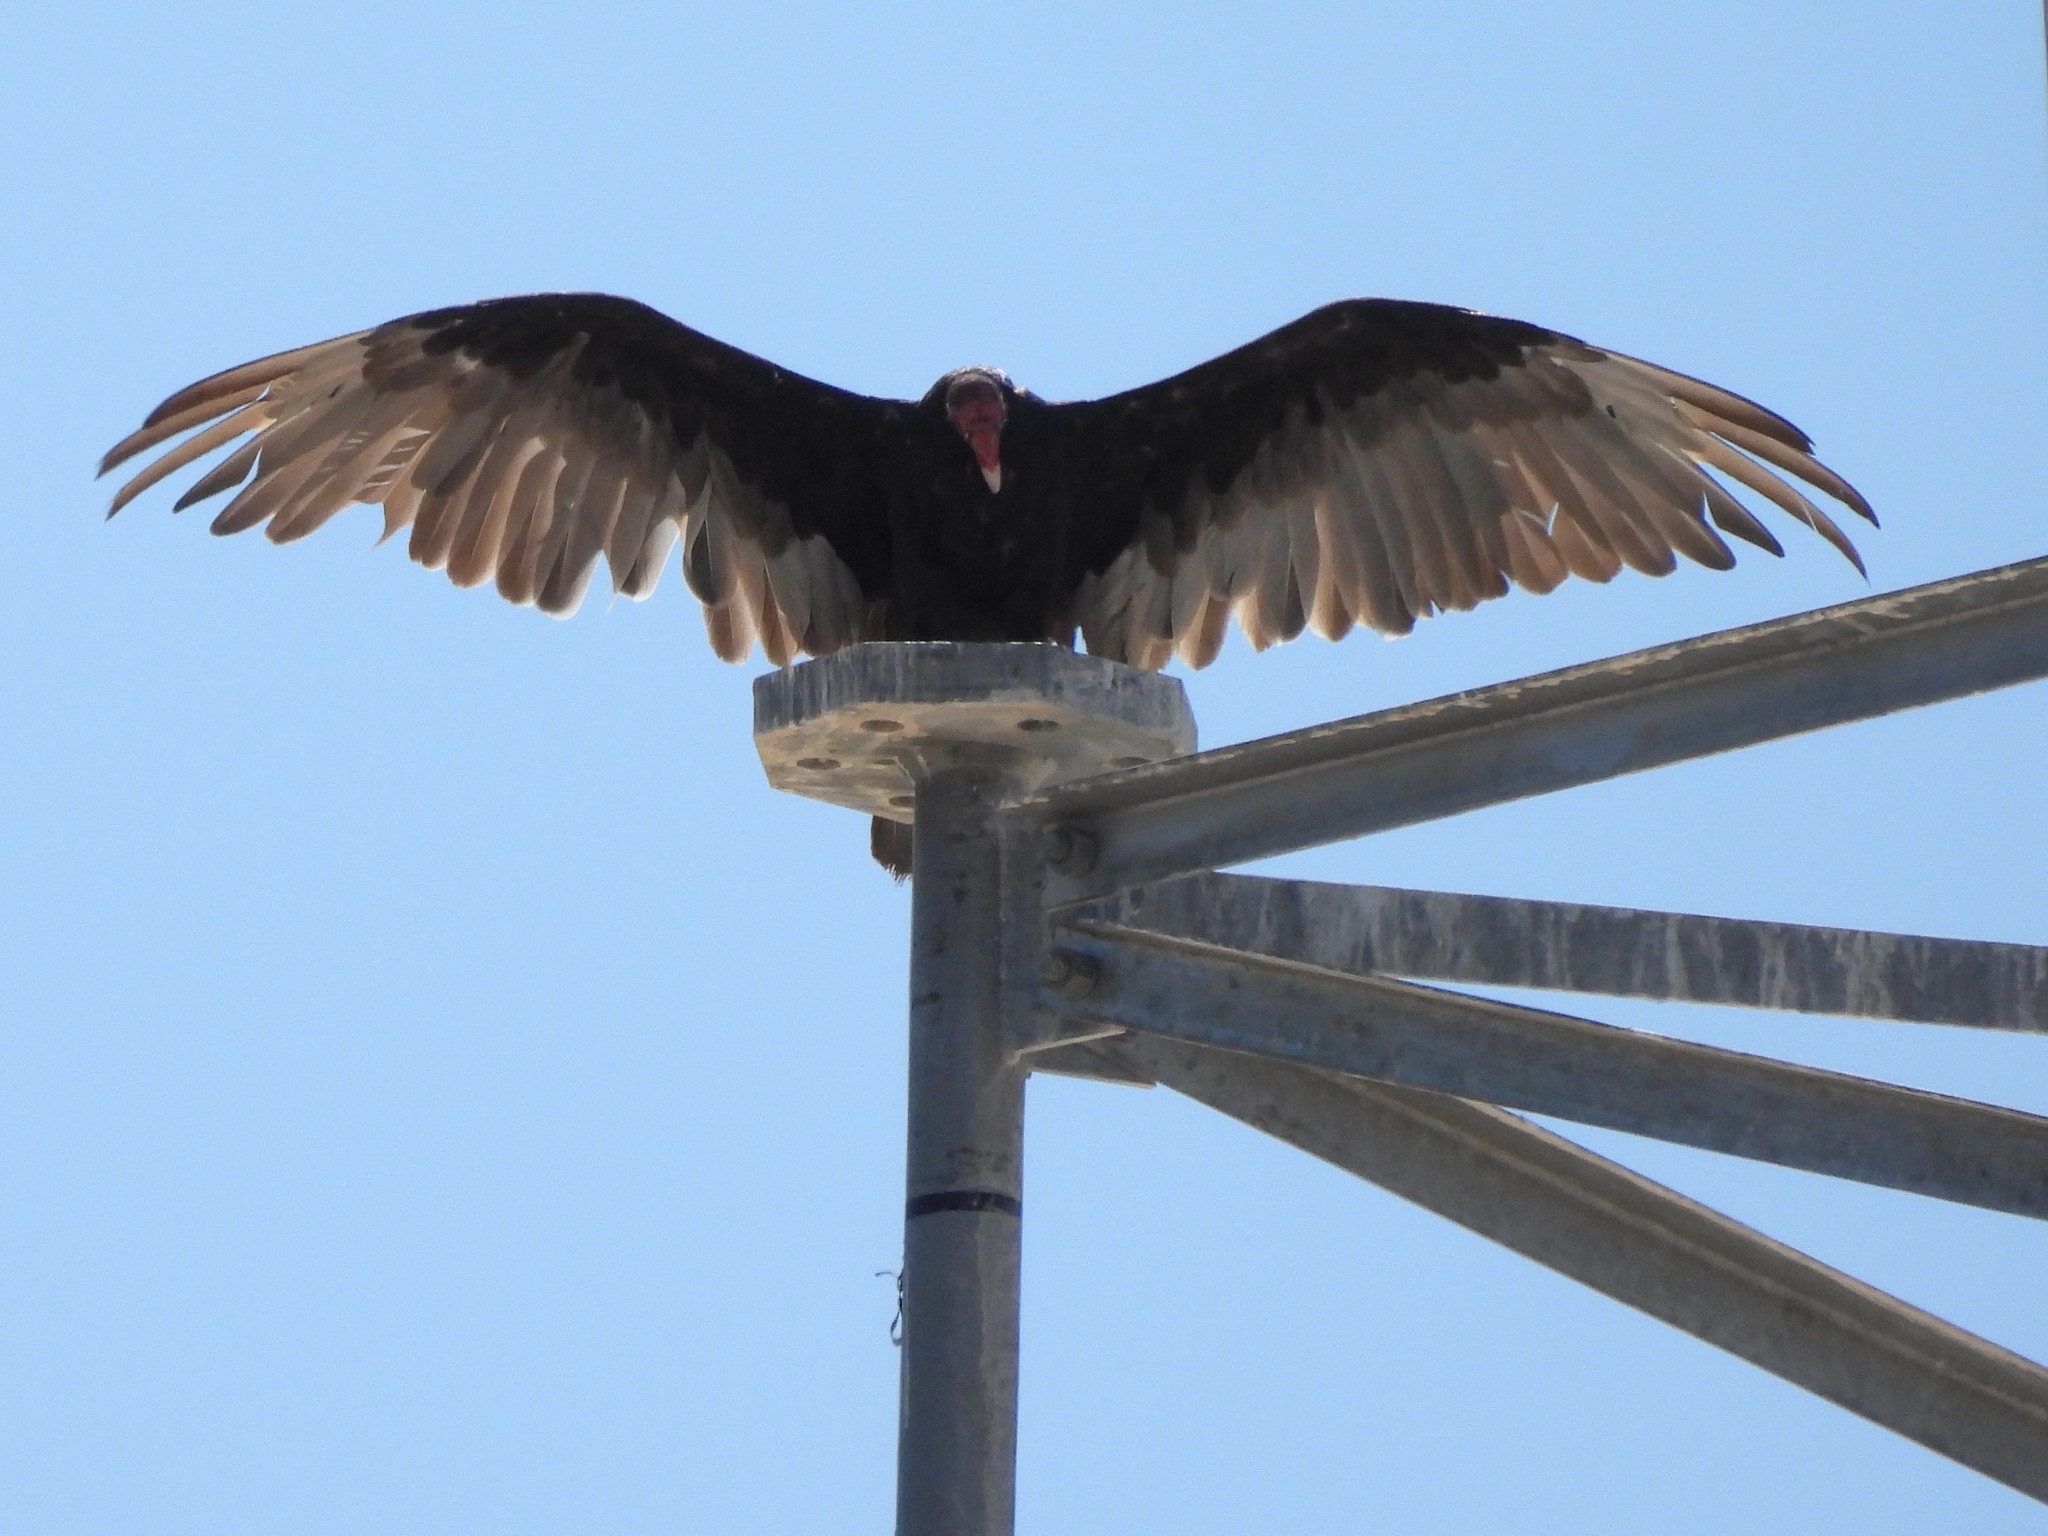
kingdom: Animalia
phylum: Chordata
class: Aves
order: Accipitriformes
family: Cathartidae
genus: Cathartes
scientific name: Cathartes aura
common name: Turkey vulture
